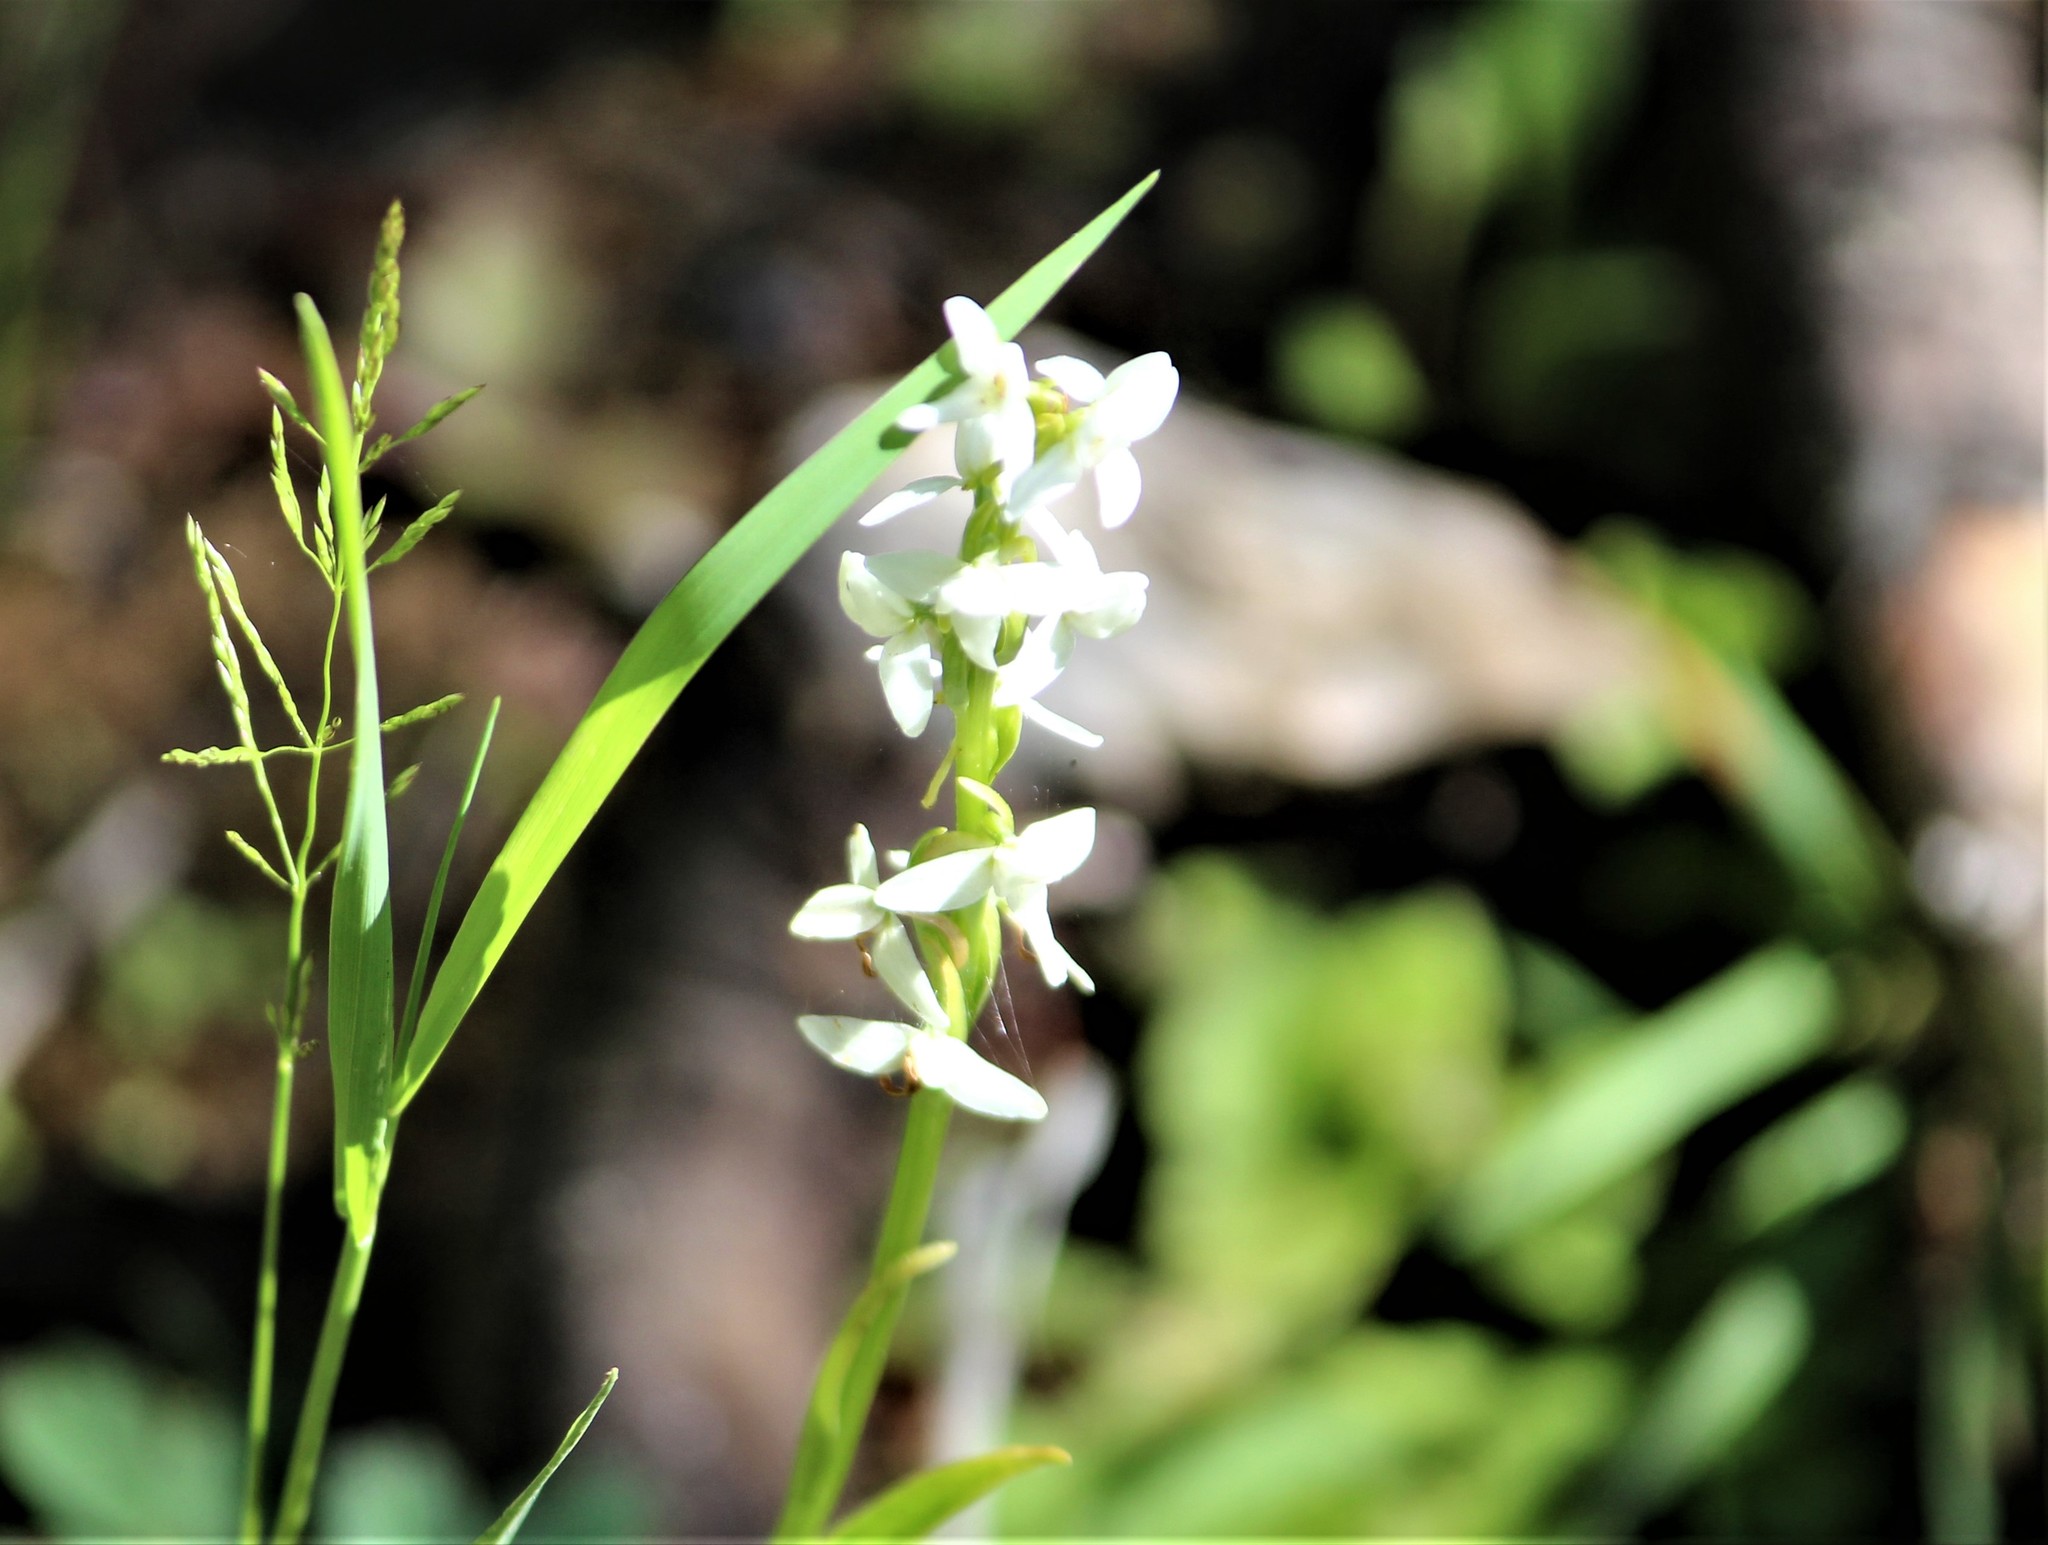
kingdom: Plantae
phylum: Tracheophyta
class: Liliopsida
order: Asparagales
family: Orchidaceae
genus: Platanthera
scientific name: Platanthera dilatata
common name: Bog candles
